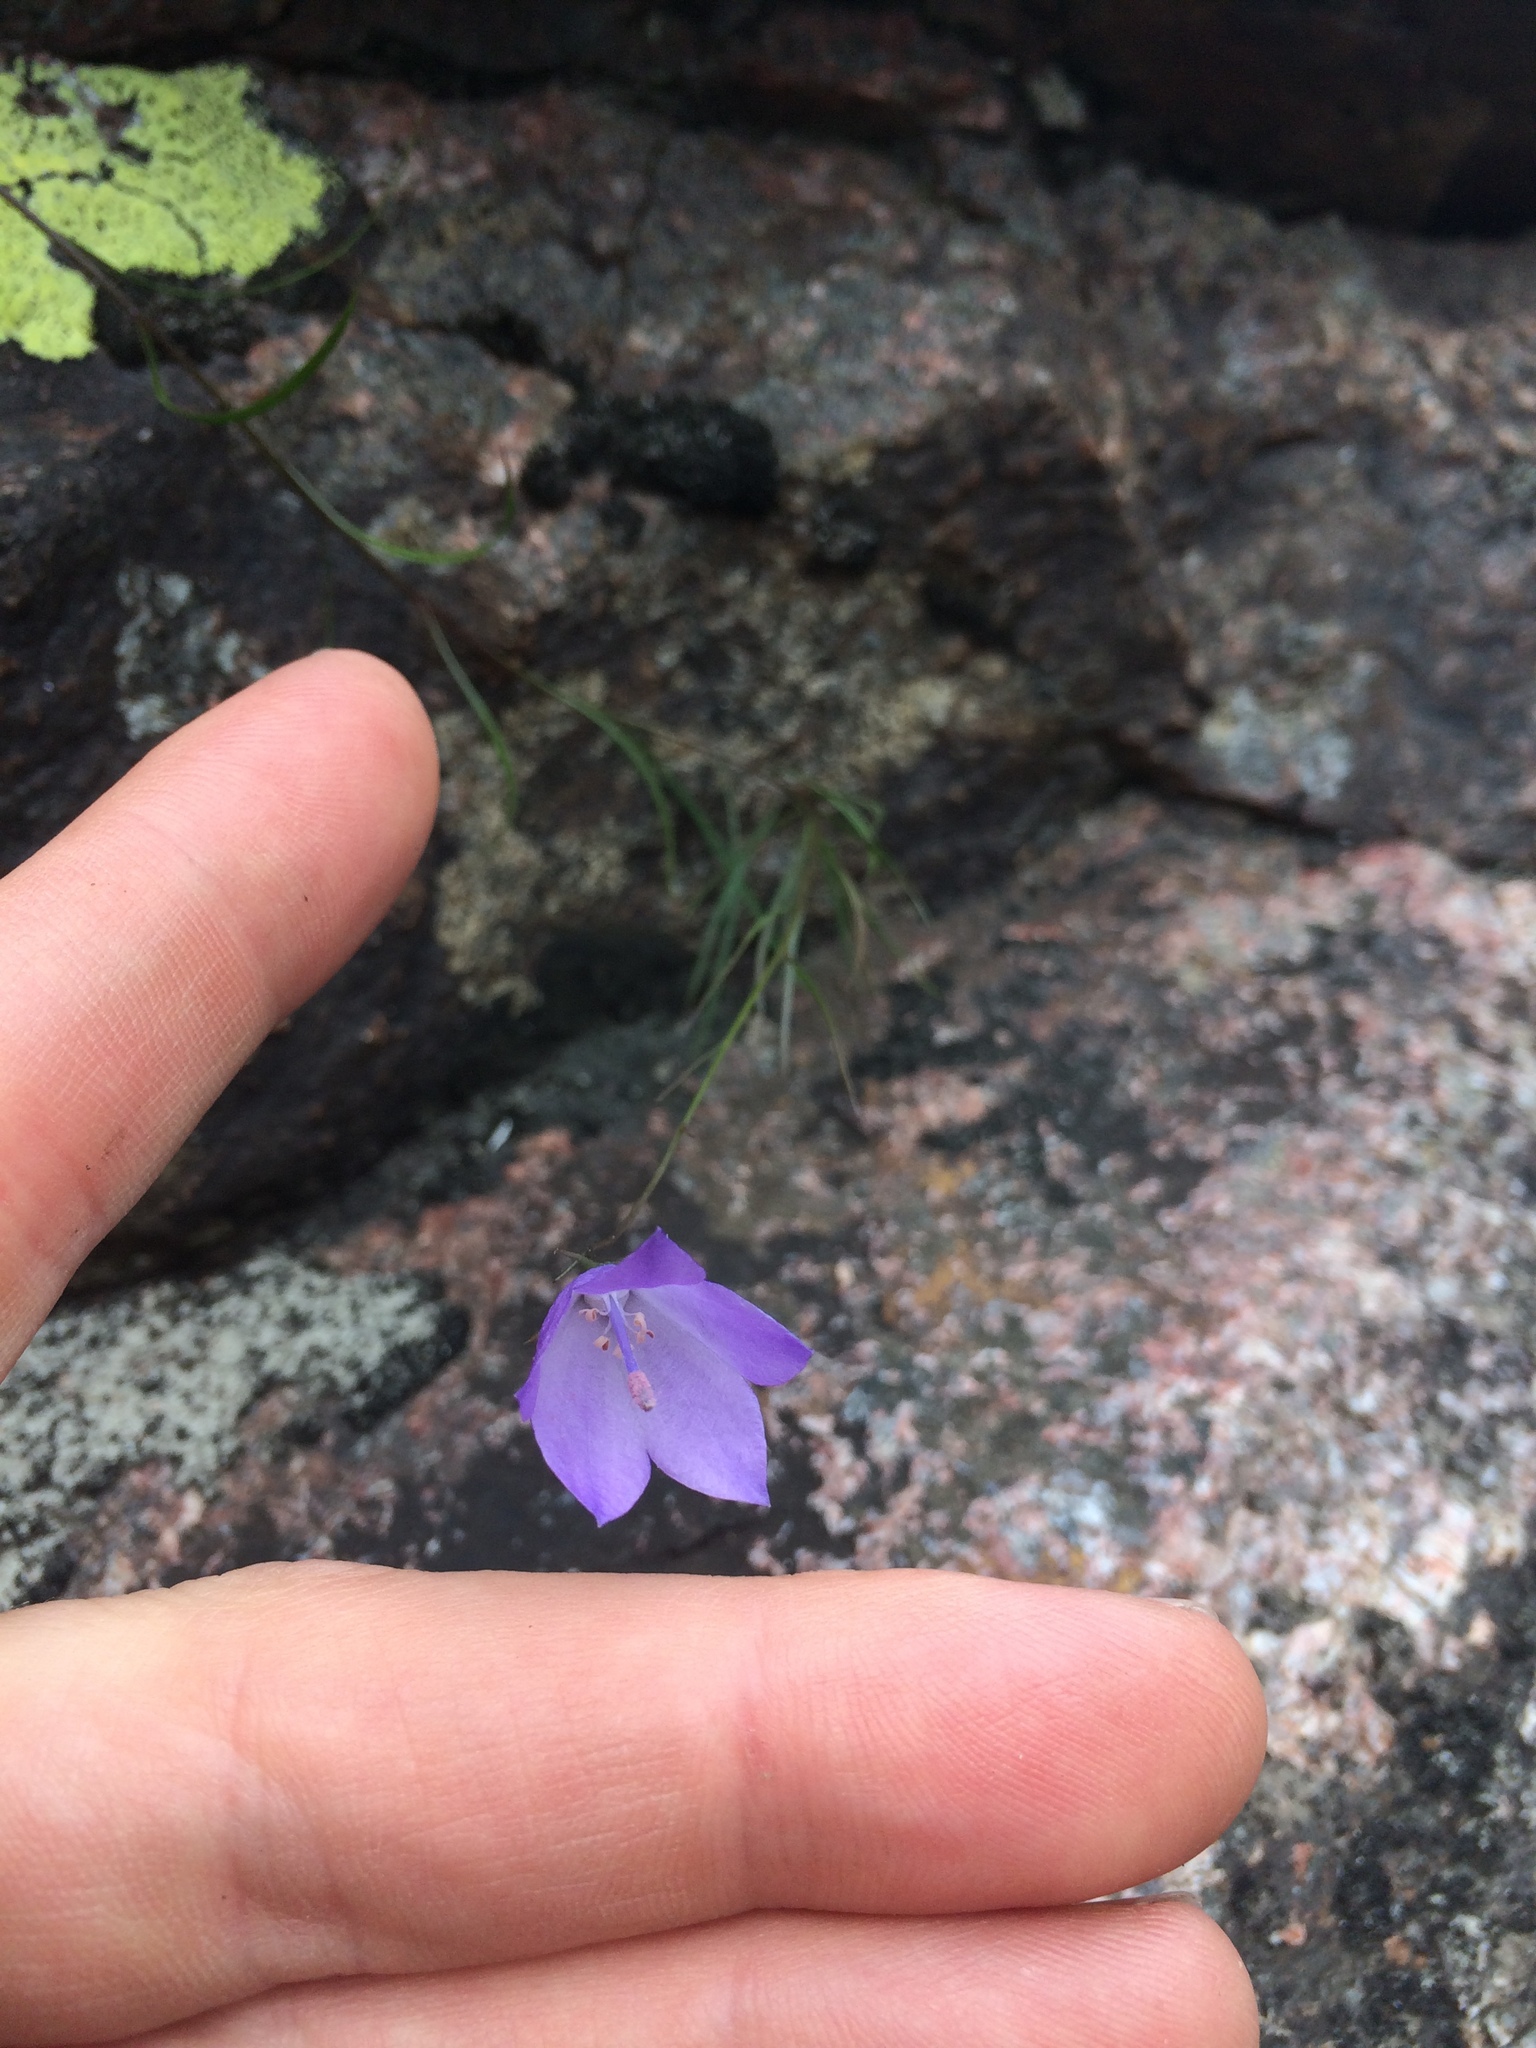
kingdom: Plantae
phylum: Tracheophyta
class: Magnoliopsida
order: Asterales
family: Campanulaceae
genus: Campanula
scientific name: Campanula giesekiana
